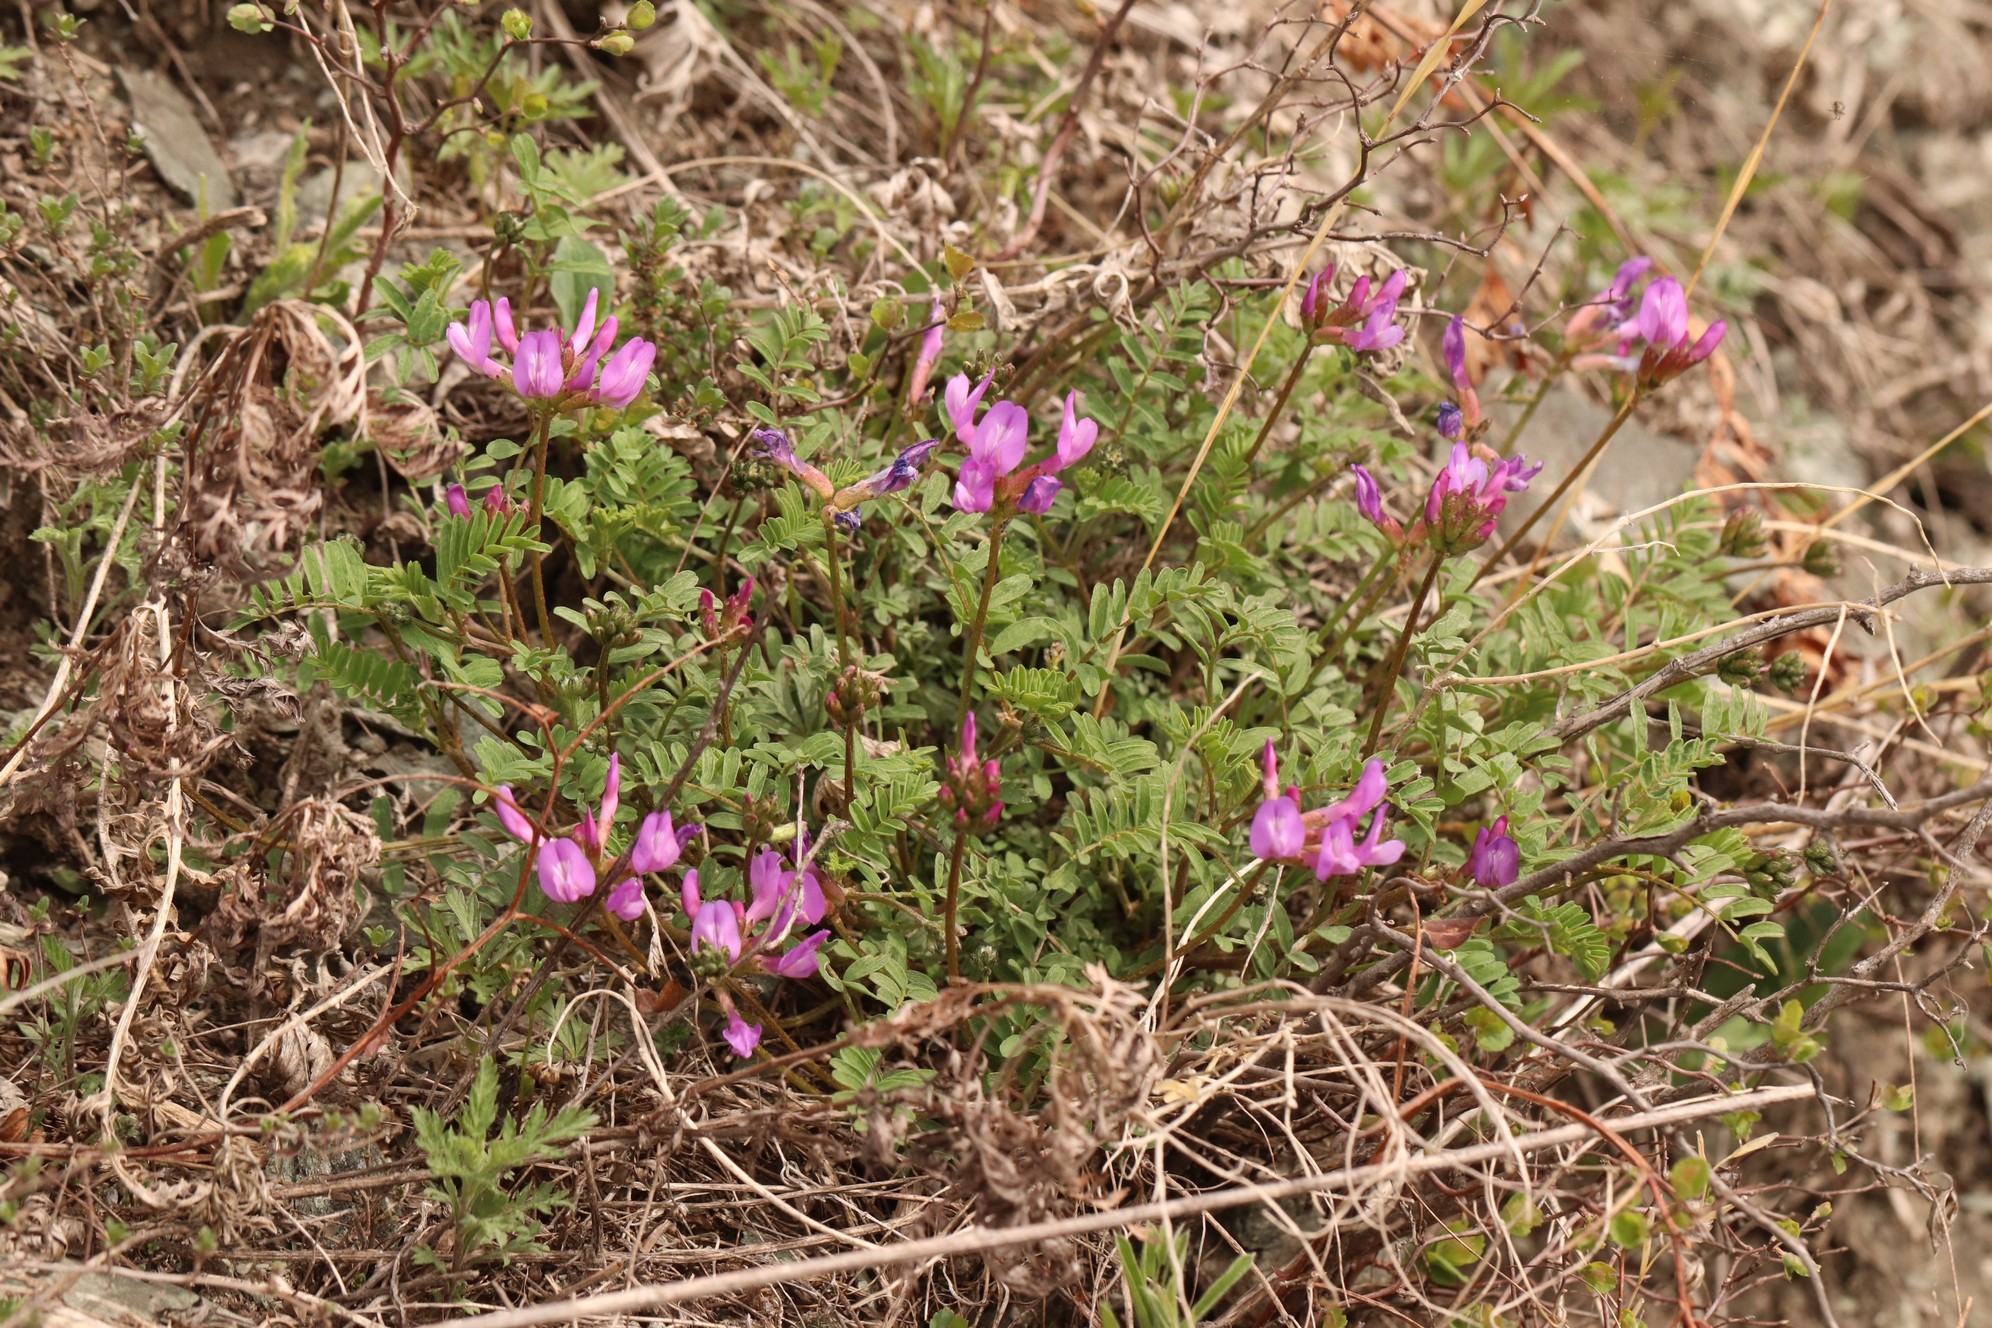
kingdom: Plantae
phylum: Tracheophyta
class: Magnoliopsida
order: Fabales
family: Fabaceae
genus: Astragalus
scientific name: Astragalus ceratoides
